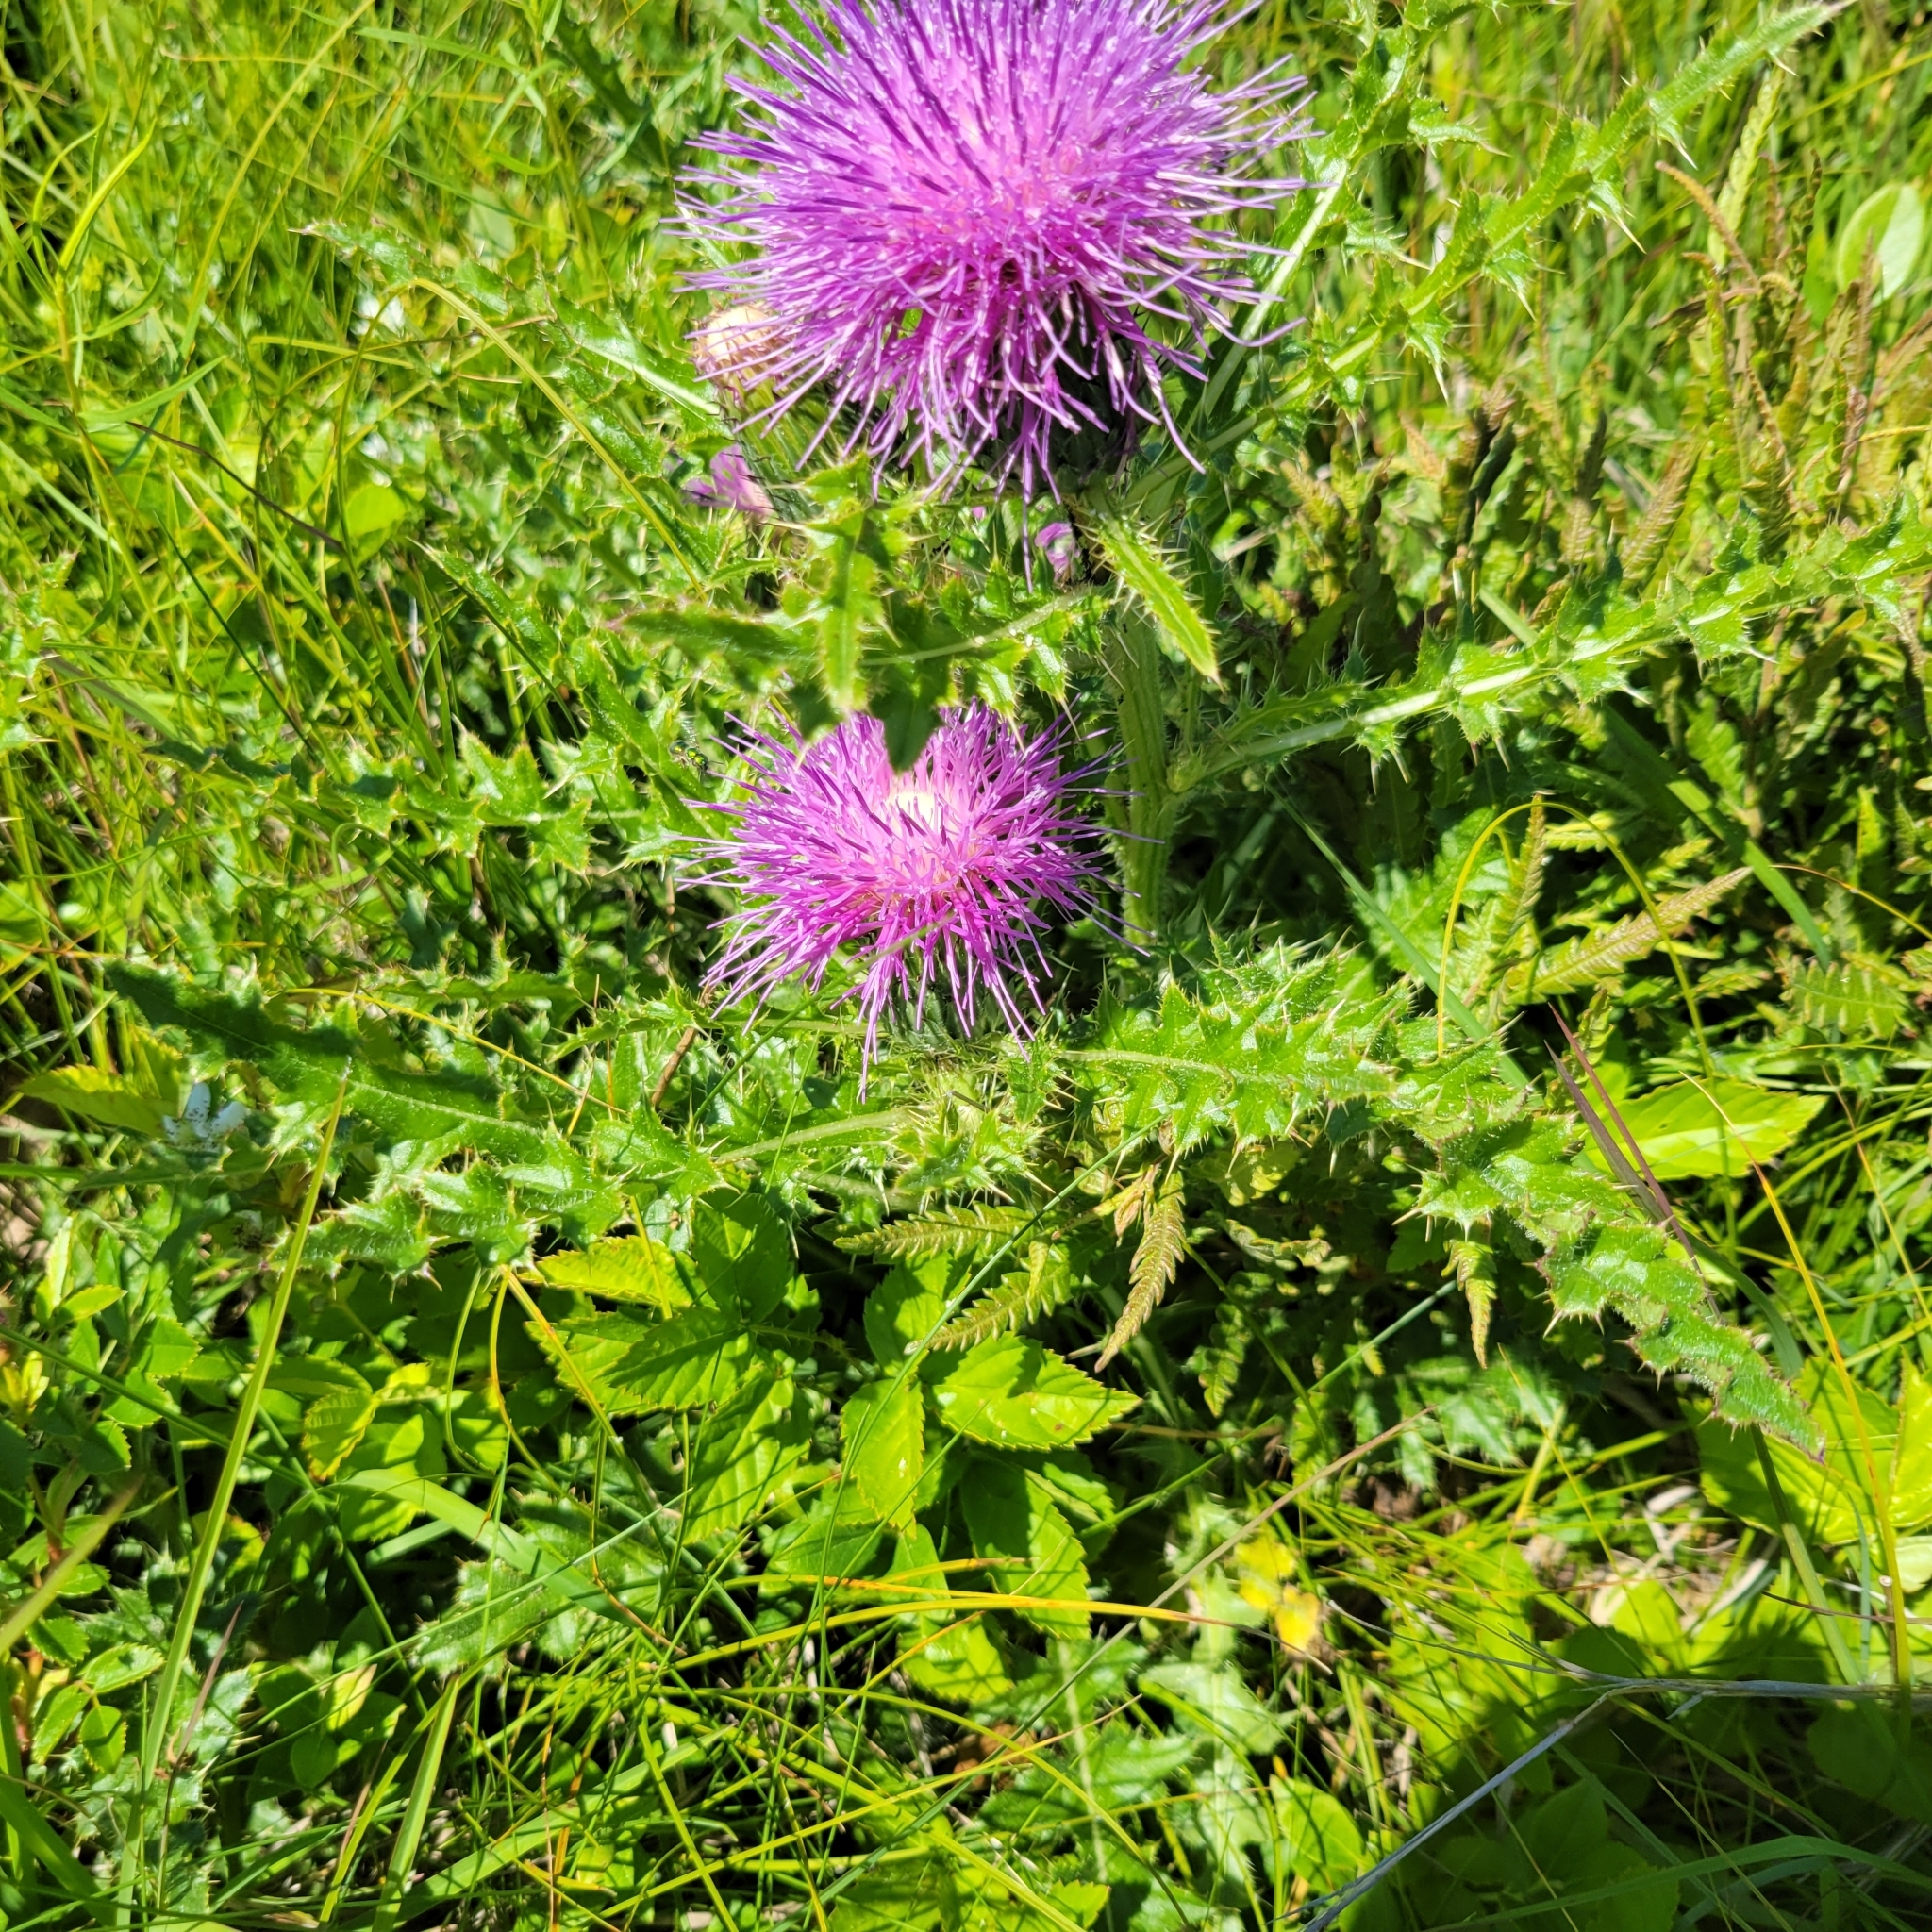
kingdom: Plantae
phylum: Tracheophyta
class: Magnoliopsida
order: Asterales
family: Asteraceae
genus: Cirsium
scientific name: Cirsium pumilum
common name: Pasture thistle
